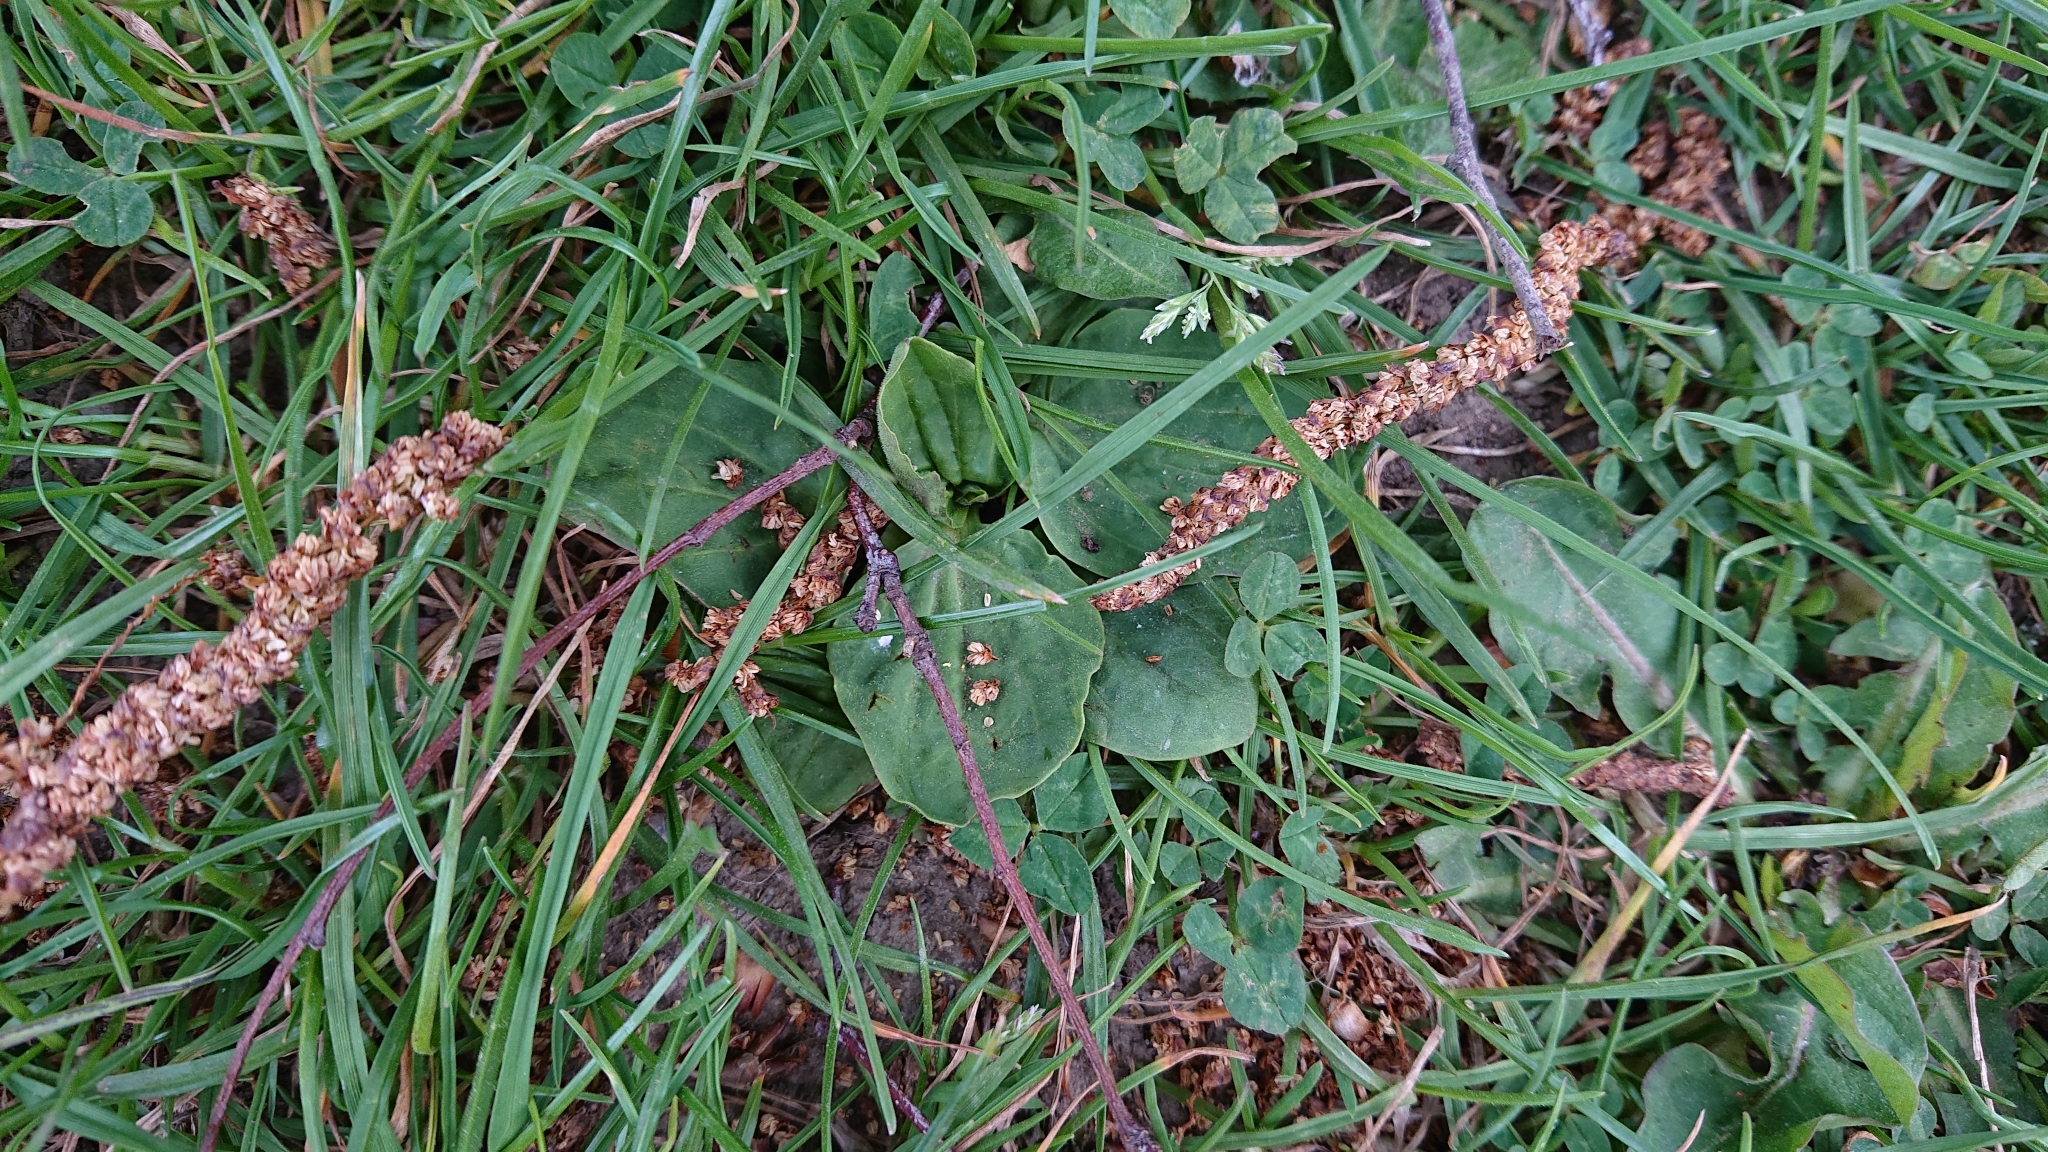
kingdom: Plantae
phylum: Tracheophyta
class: Magnoliopsida
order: Lamiales
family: Plantaginaceae
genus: Plantago
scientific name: Plantago major
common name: Common plantain
